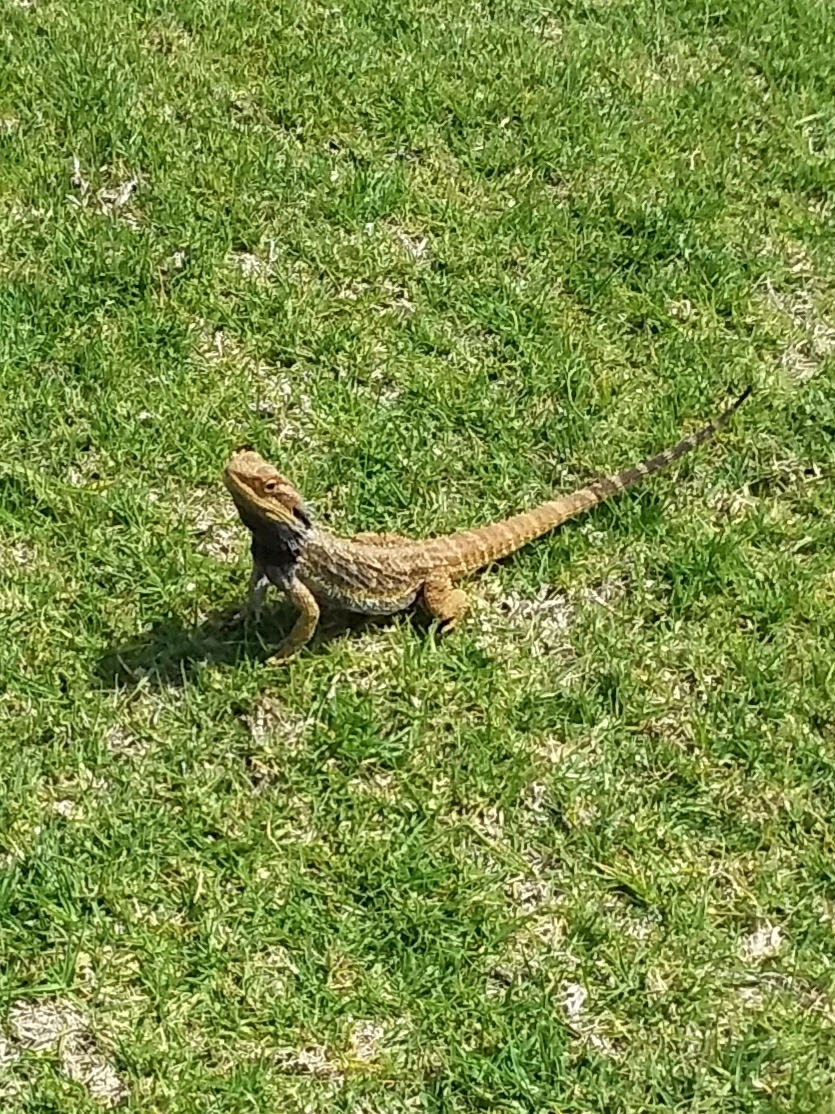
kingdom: Animalia
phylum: Chordata
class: Squamata
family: Agamidae
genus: Pogona
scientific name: Pogona barbata
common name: Bearded dragon
